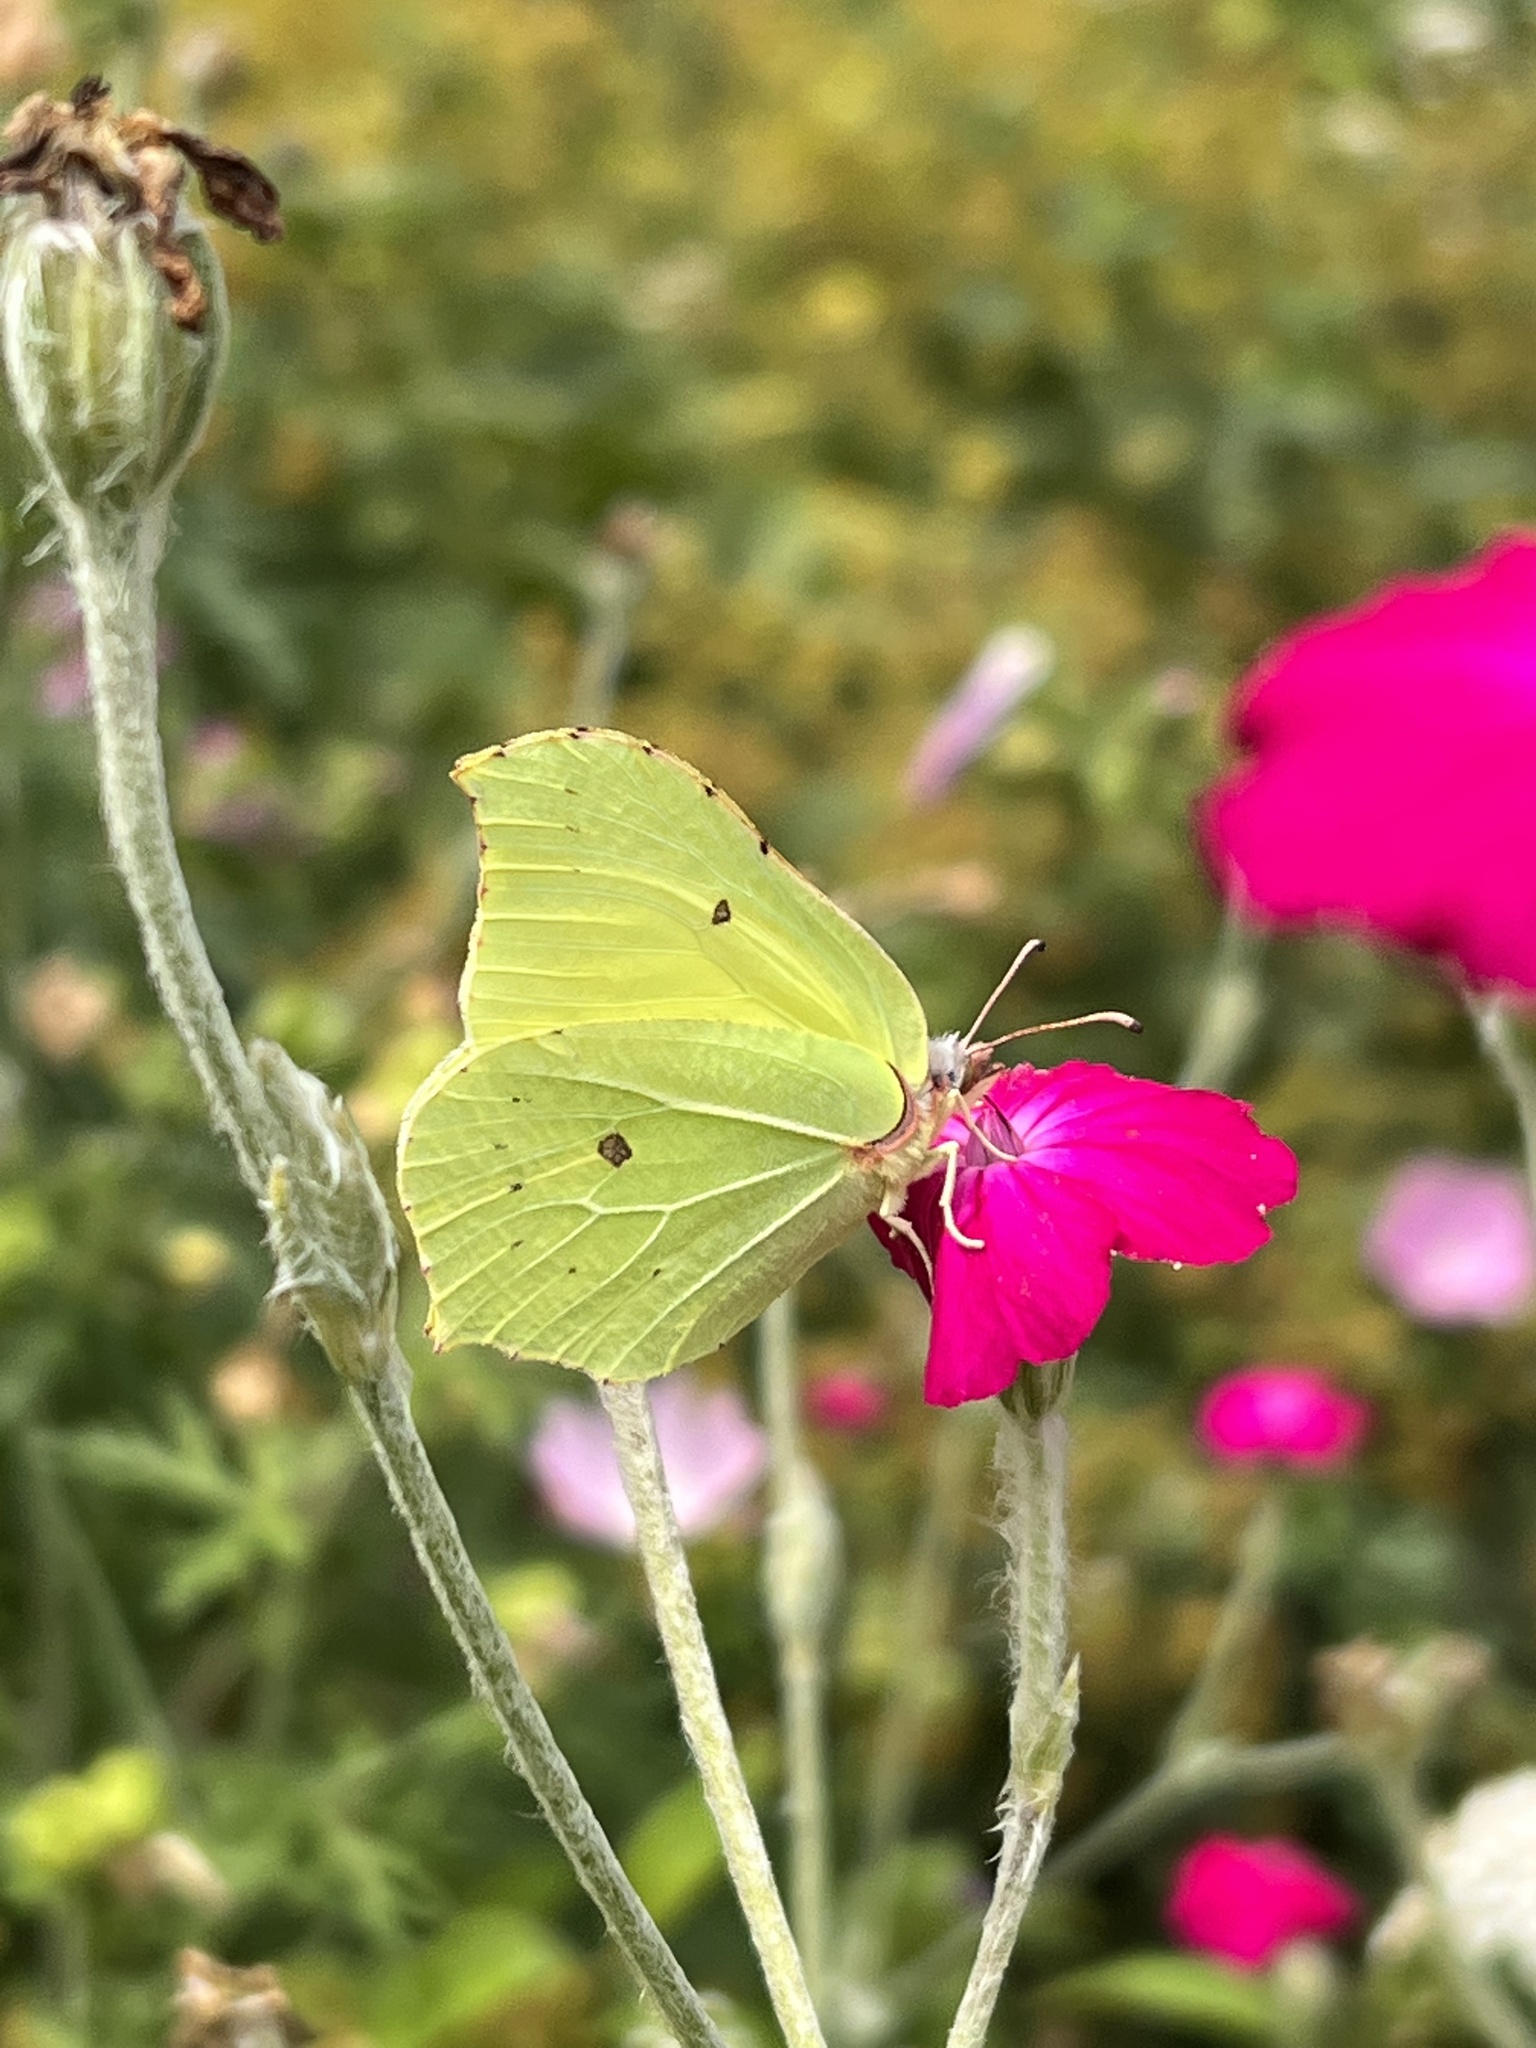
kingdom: Animalia
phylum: Arthropoda
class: Insecta
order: Lepidoptera
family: Pieridae
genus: Gonepteryx
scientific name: Gonepteryx rhamni
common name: Brimstone
